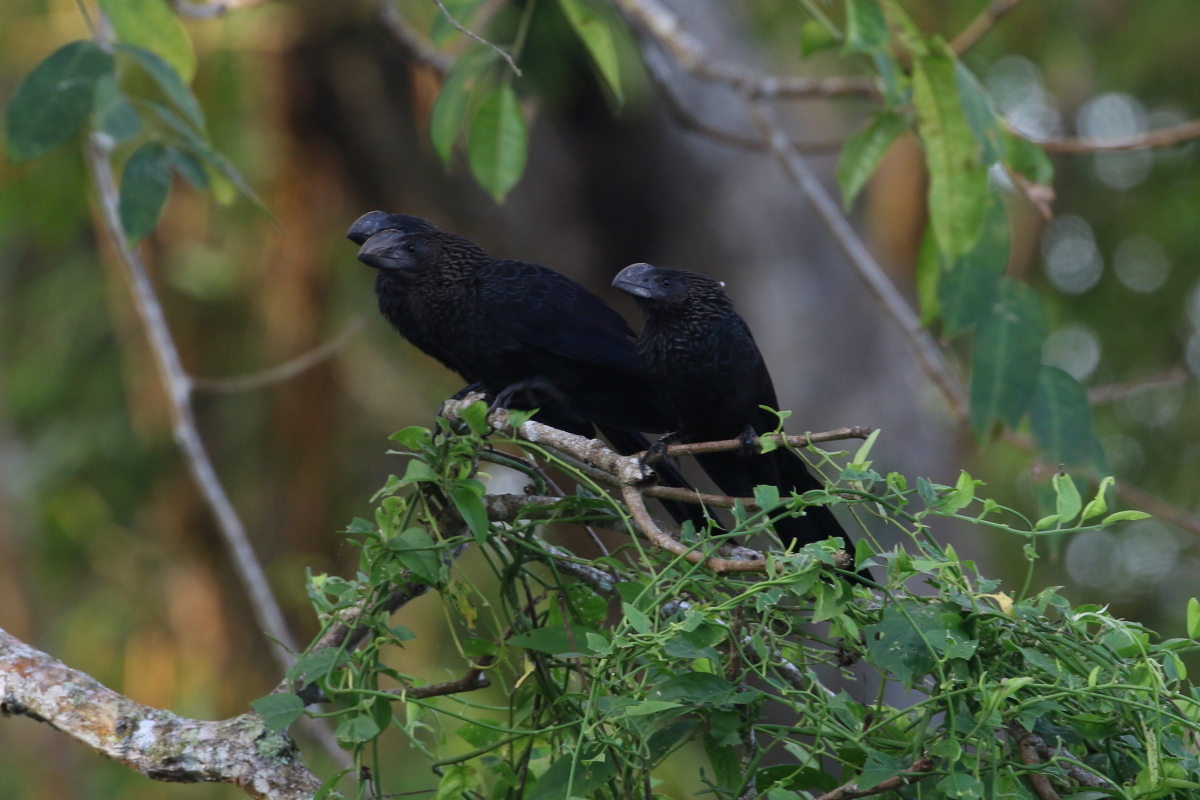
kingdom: Animalia
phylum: Chordata
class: Aves
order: Cuculiformes
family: Cuculidae
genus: Crotophaga
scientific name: Crotophaga ani
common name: Smooth-billed ani
